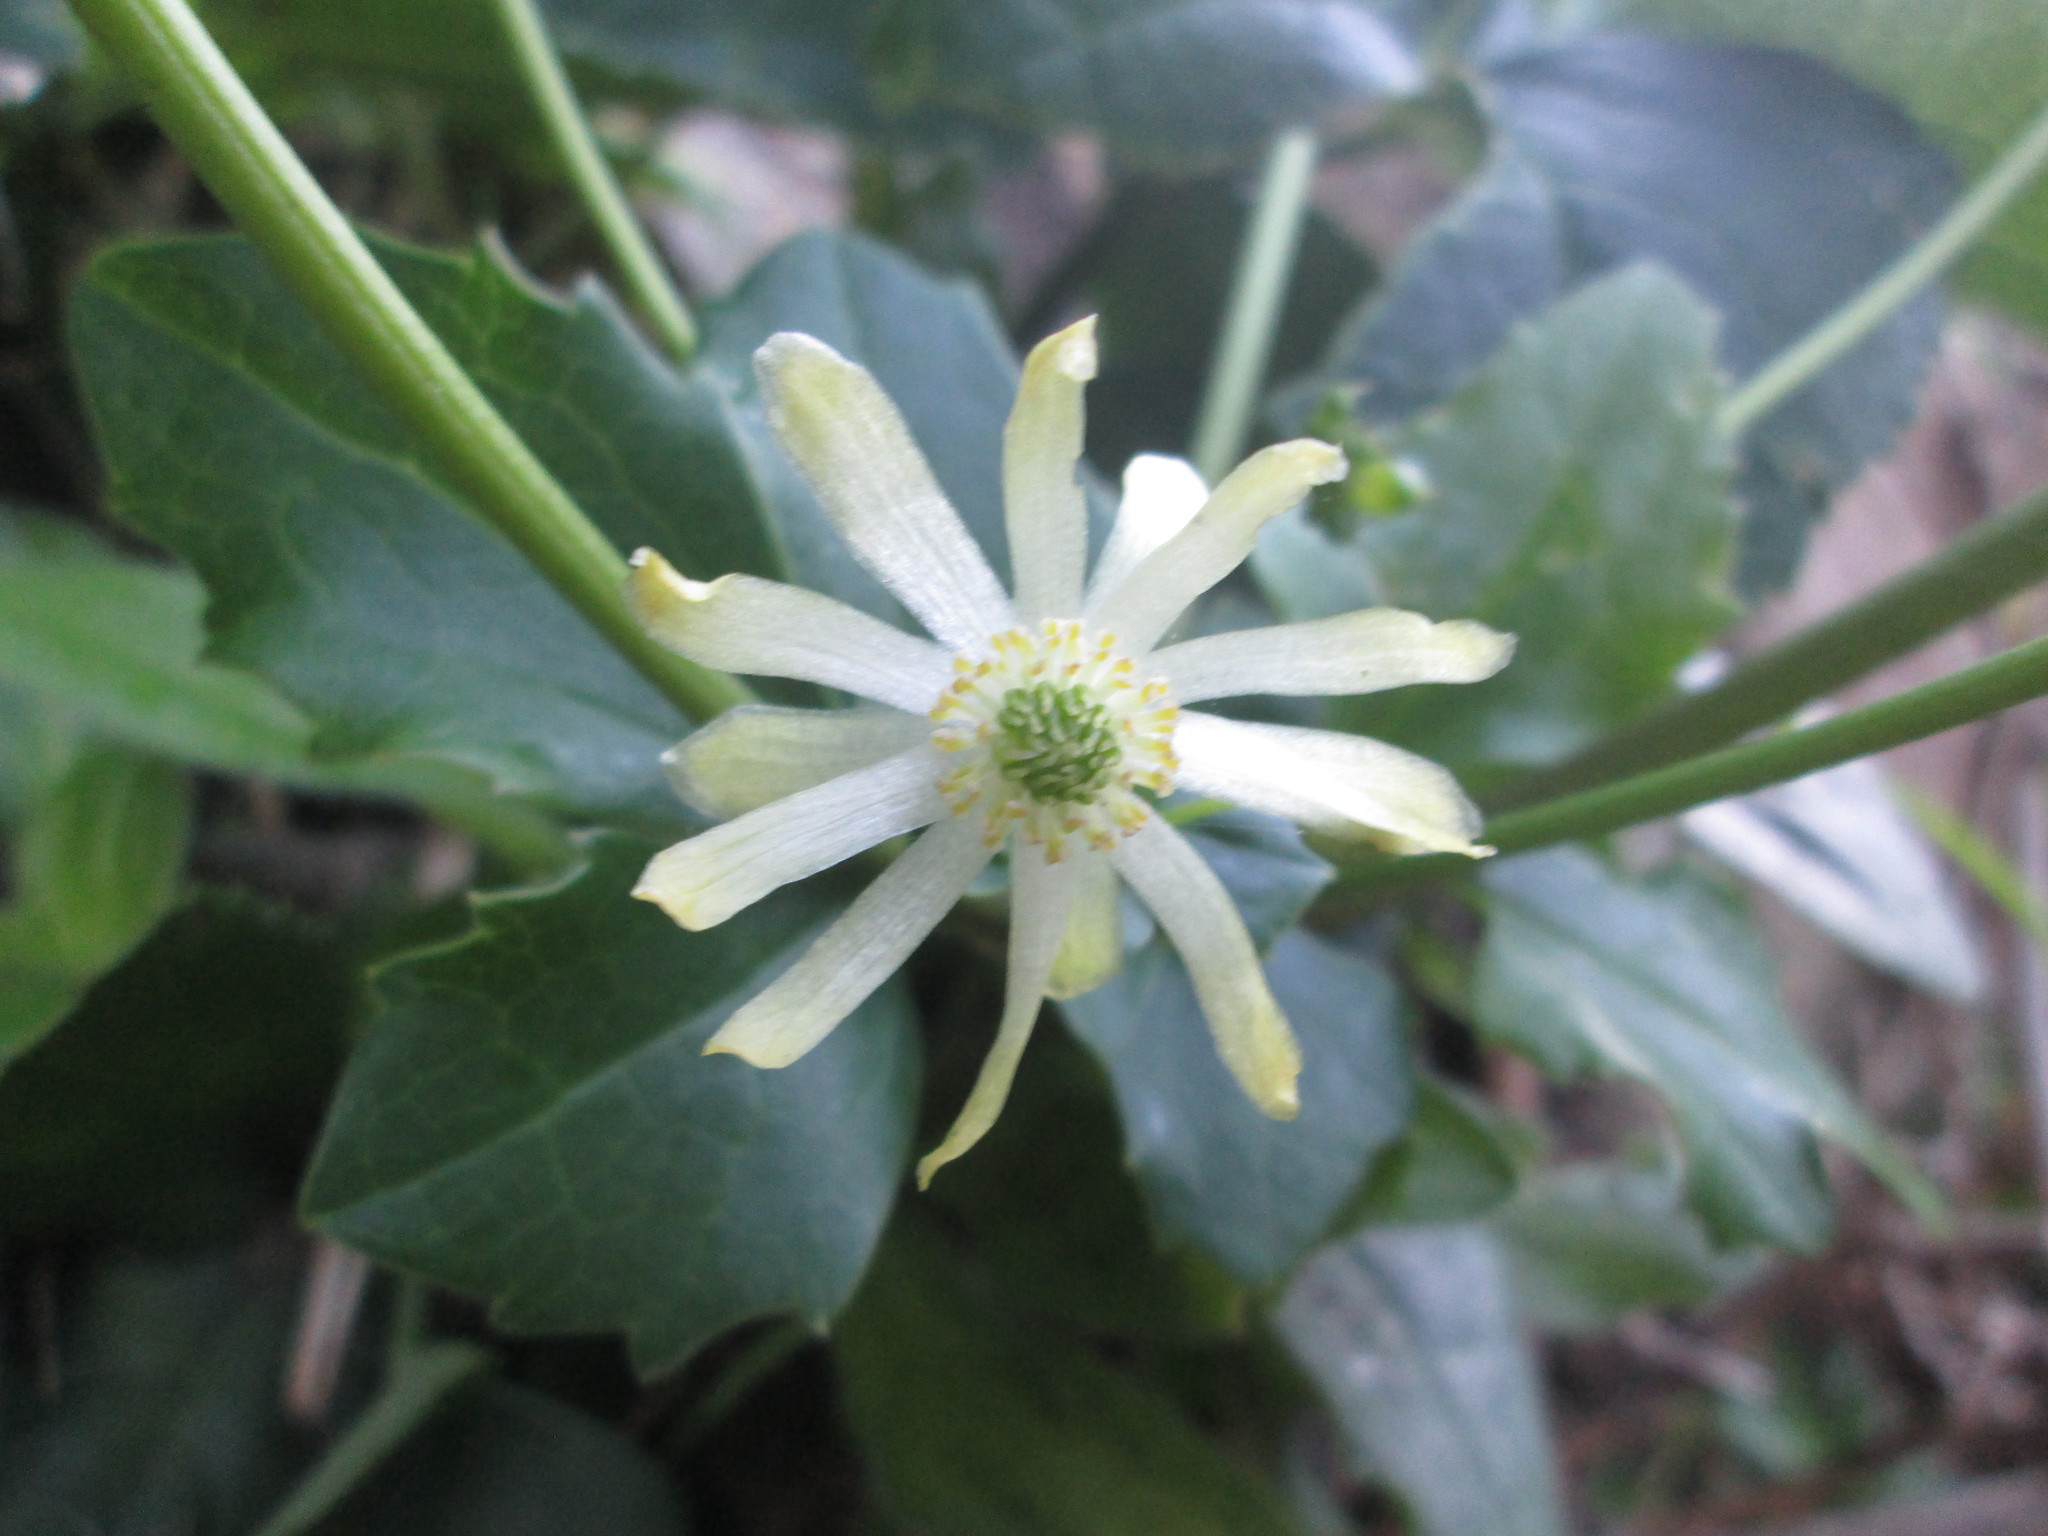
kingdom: Plantae
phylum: Tracheophyta
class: Magnoliopsida
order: Ranunculales
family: Ranunculaceae
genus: Knowltonia
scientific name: Knowltonia vesicatoria
